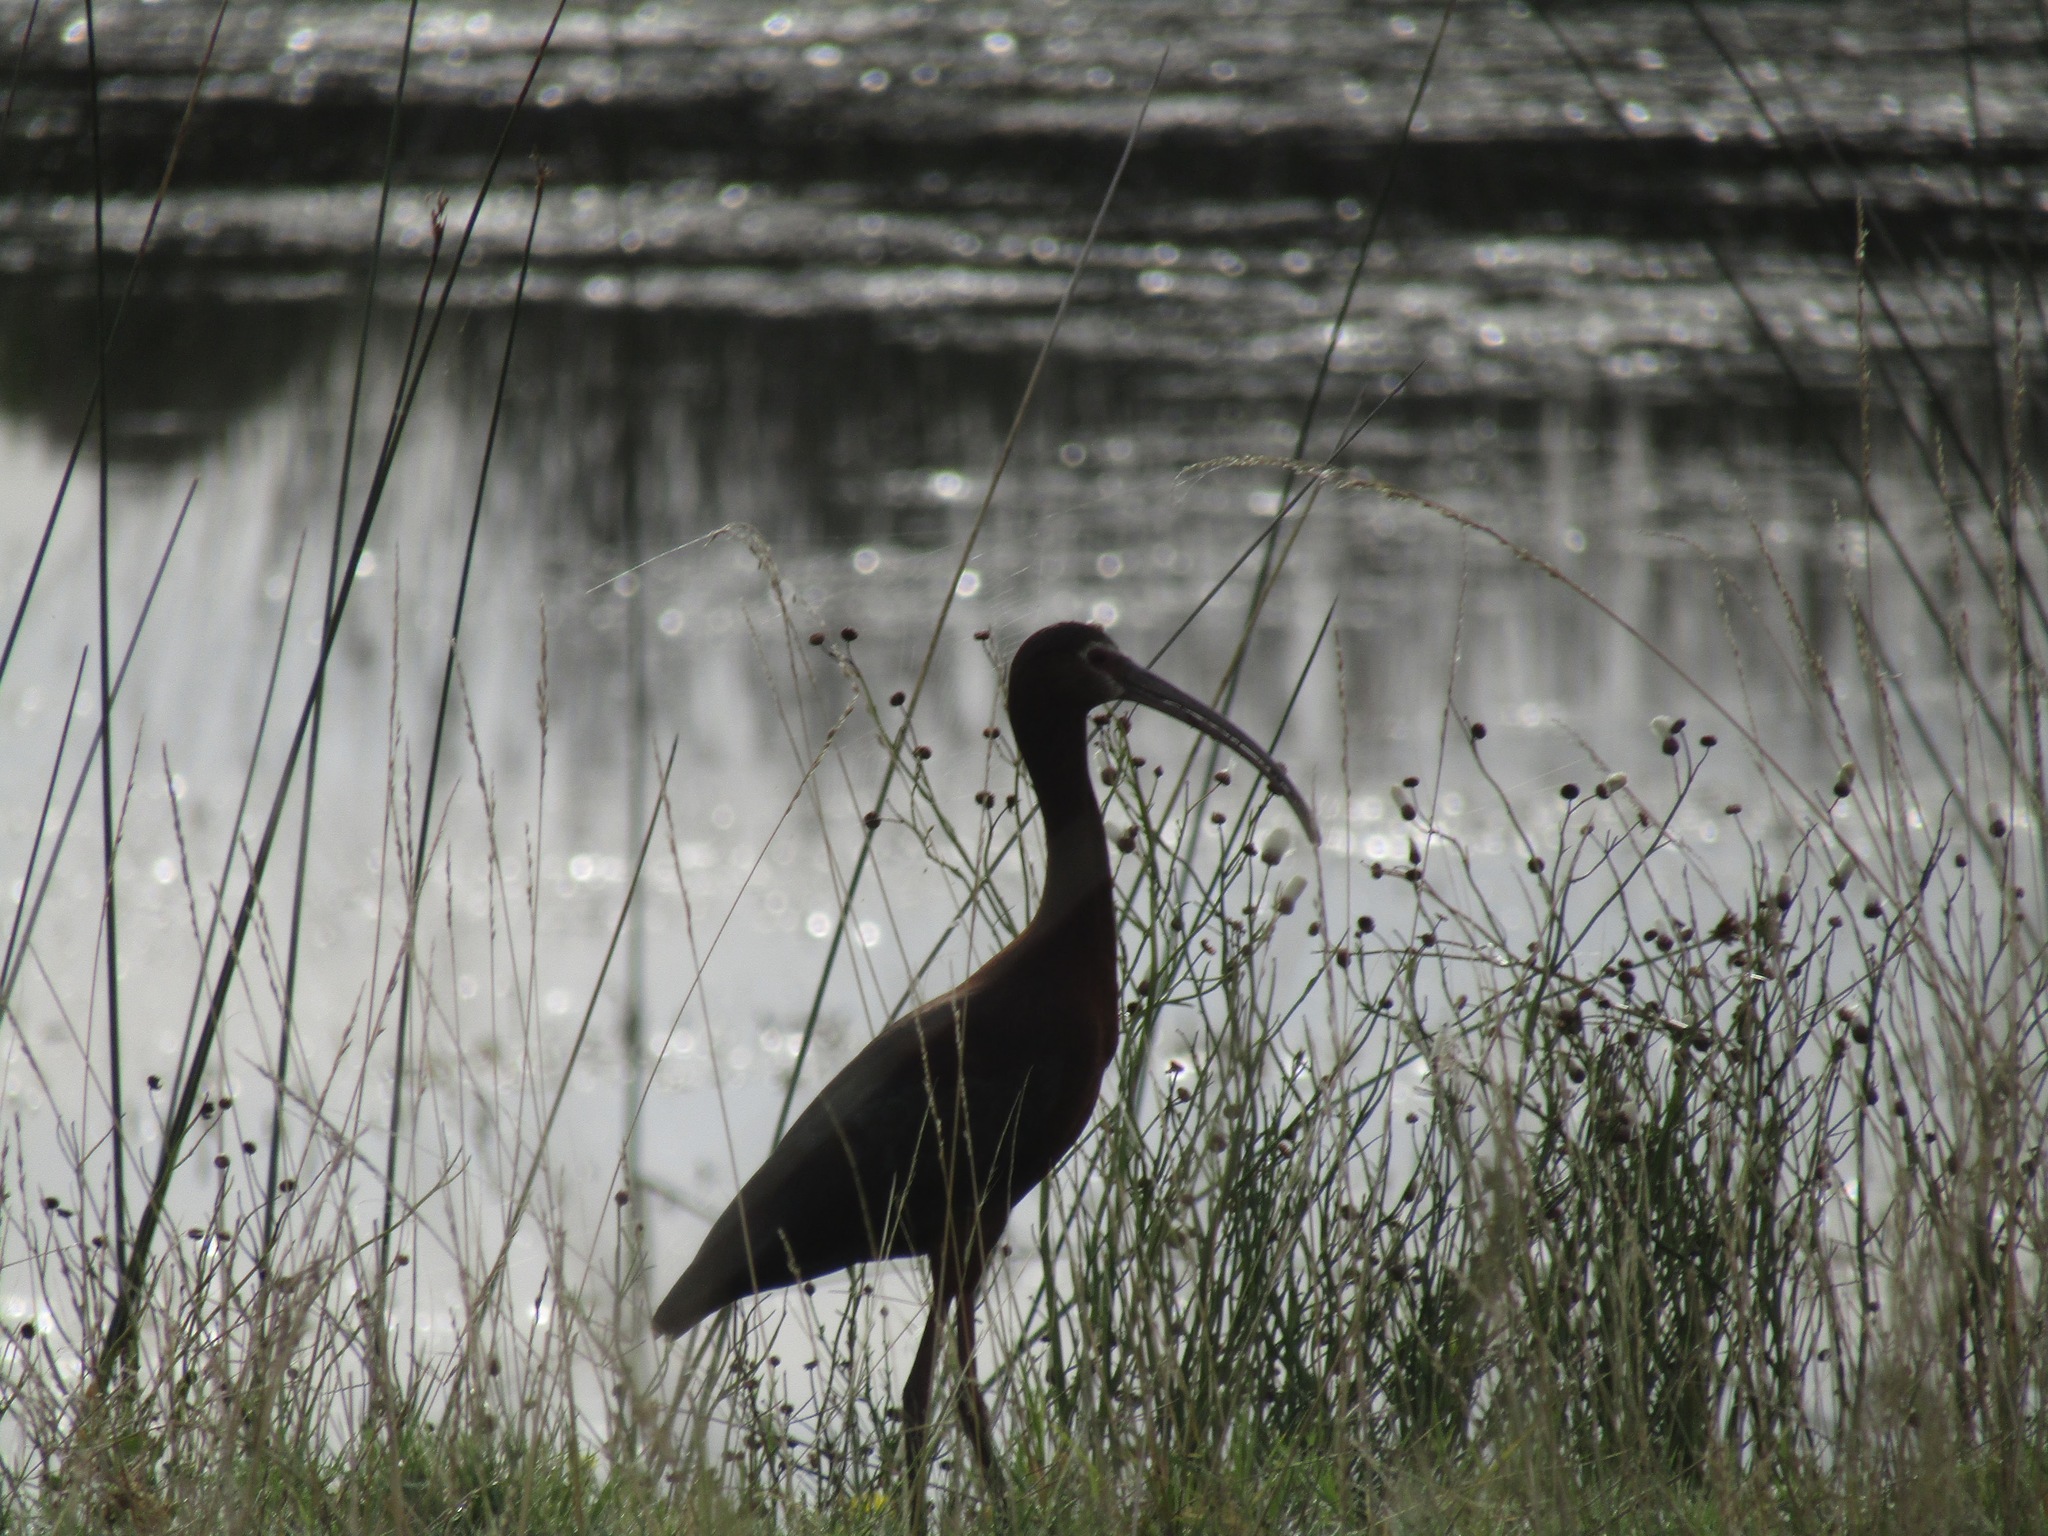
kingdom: Animalia
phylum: Chordata
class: Aves
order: Pelecaniformes
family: Threskiornithidae
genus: Plegadis
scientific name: Plegadis chihi
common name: White-faced ibis
